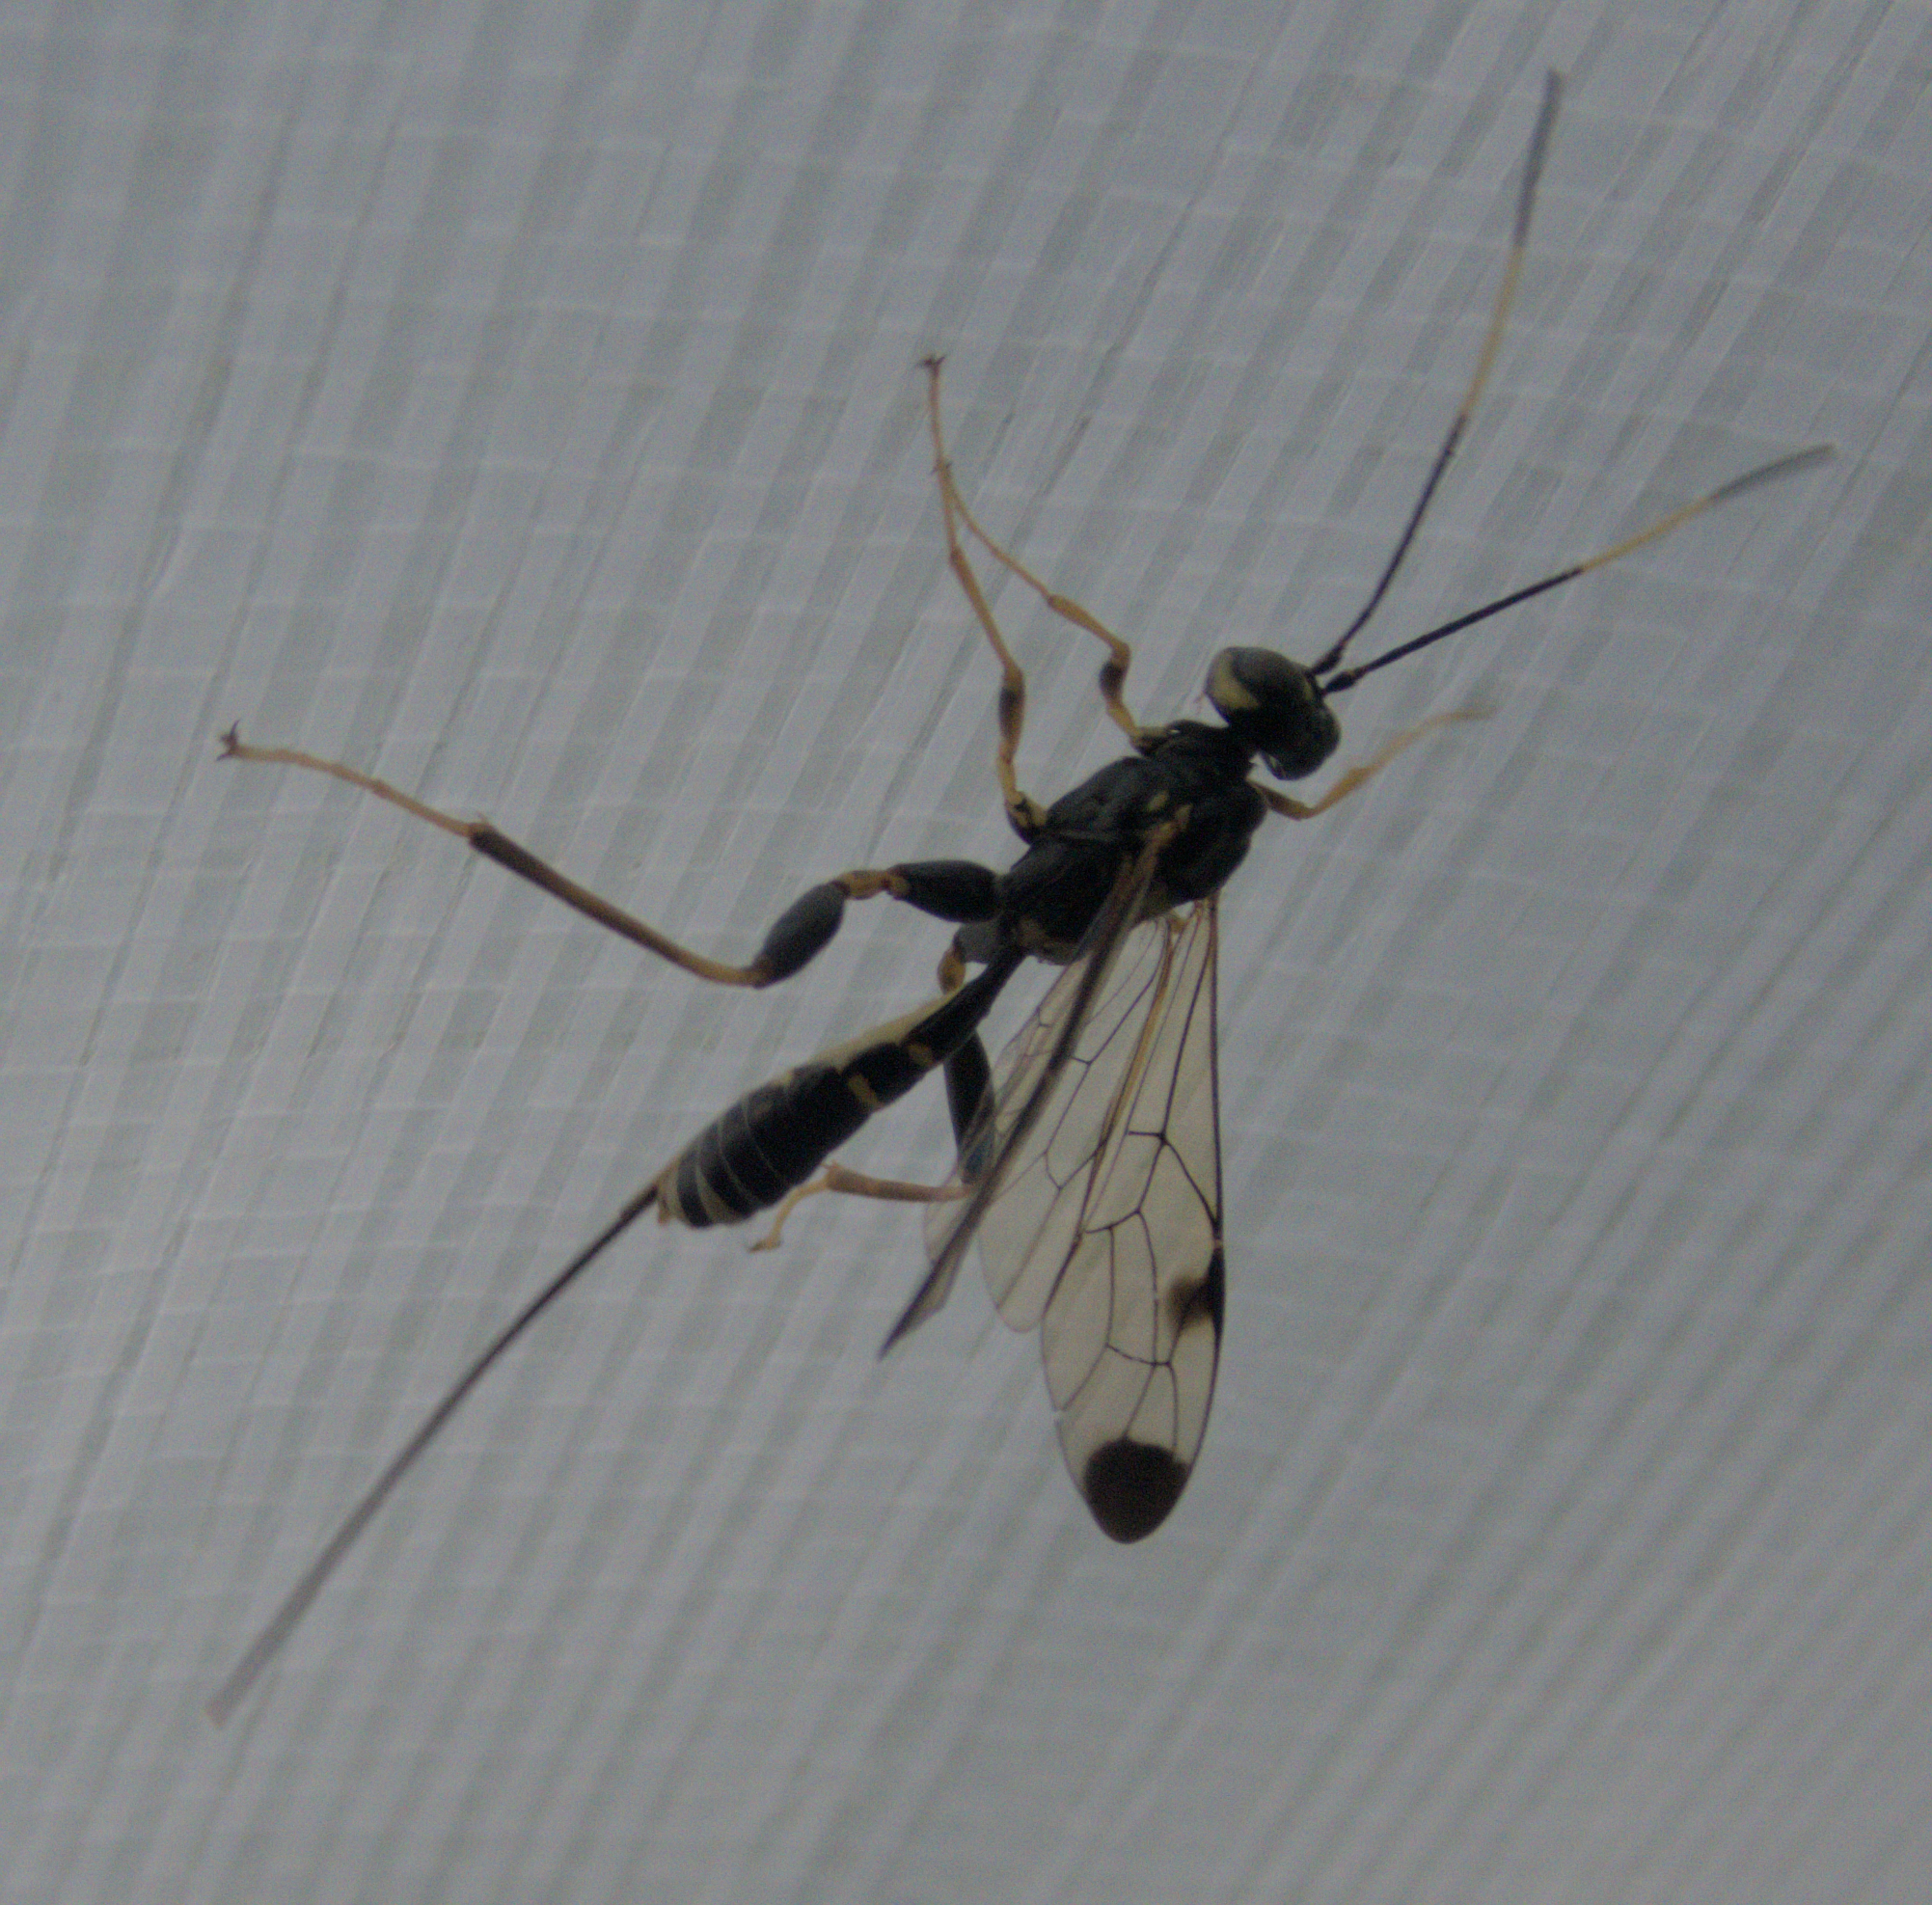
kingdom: Animalia
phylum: Arthropoda
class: Insecta
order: Hymenoptera
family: Ichneumonidae
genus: Spilopteron
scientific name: Spilopteron formosum
